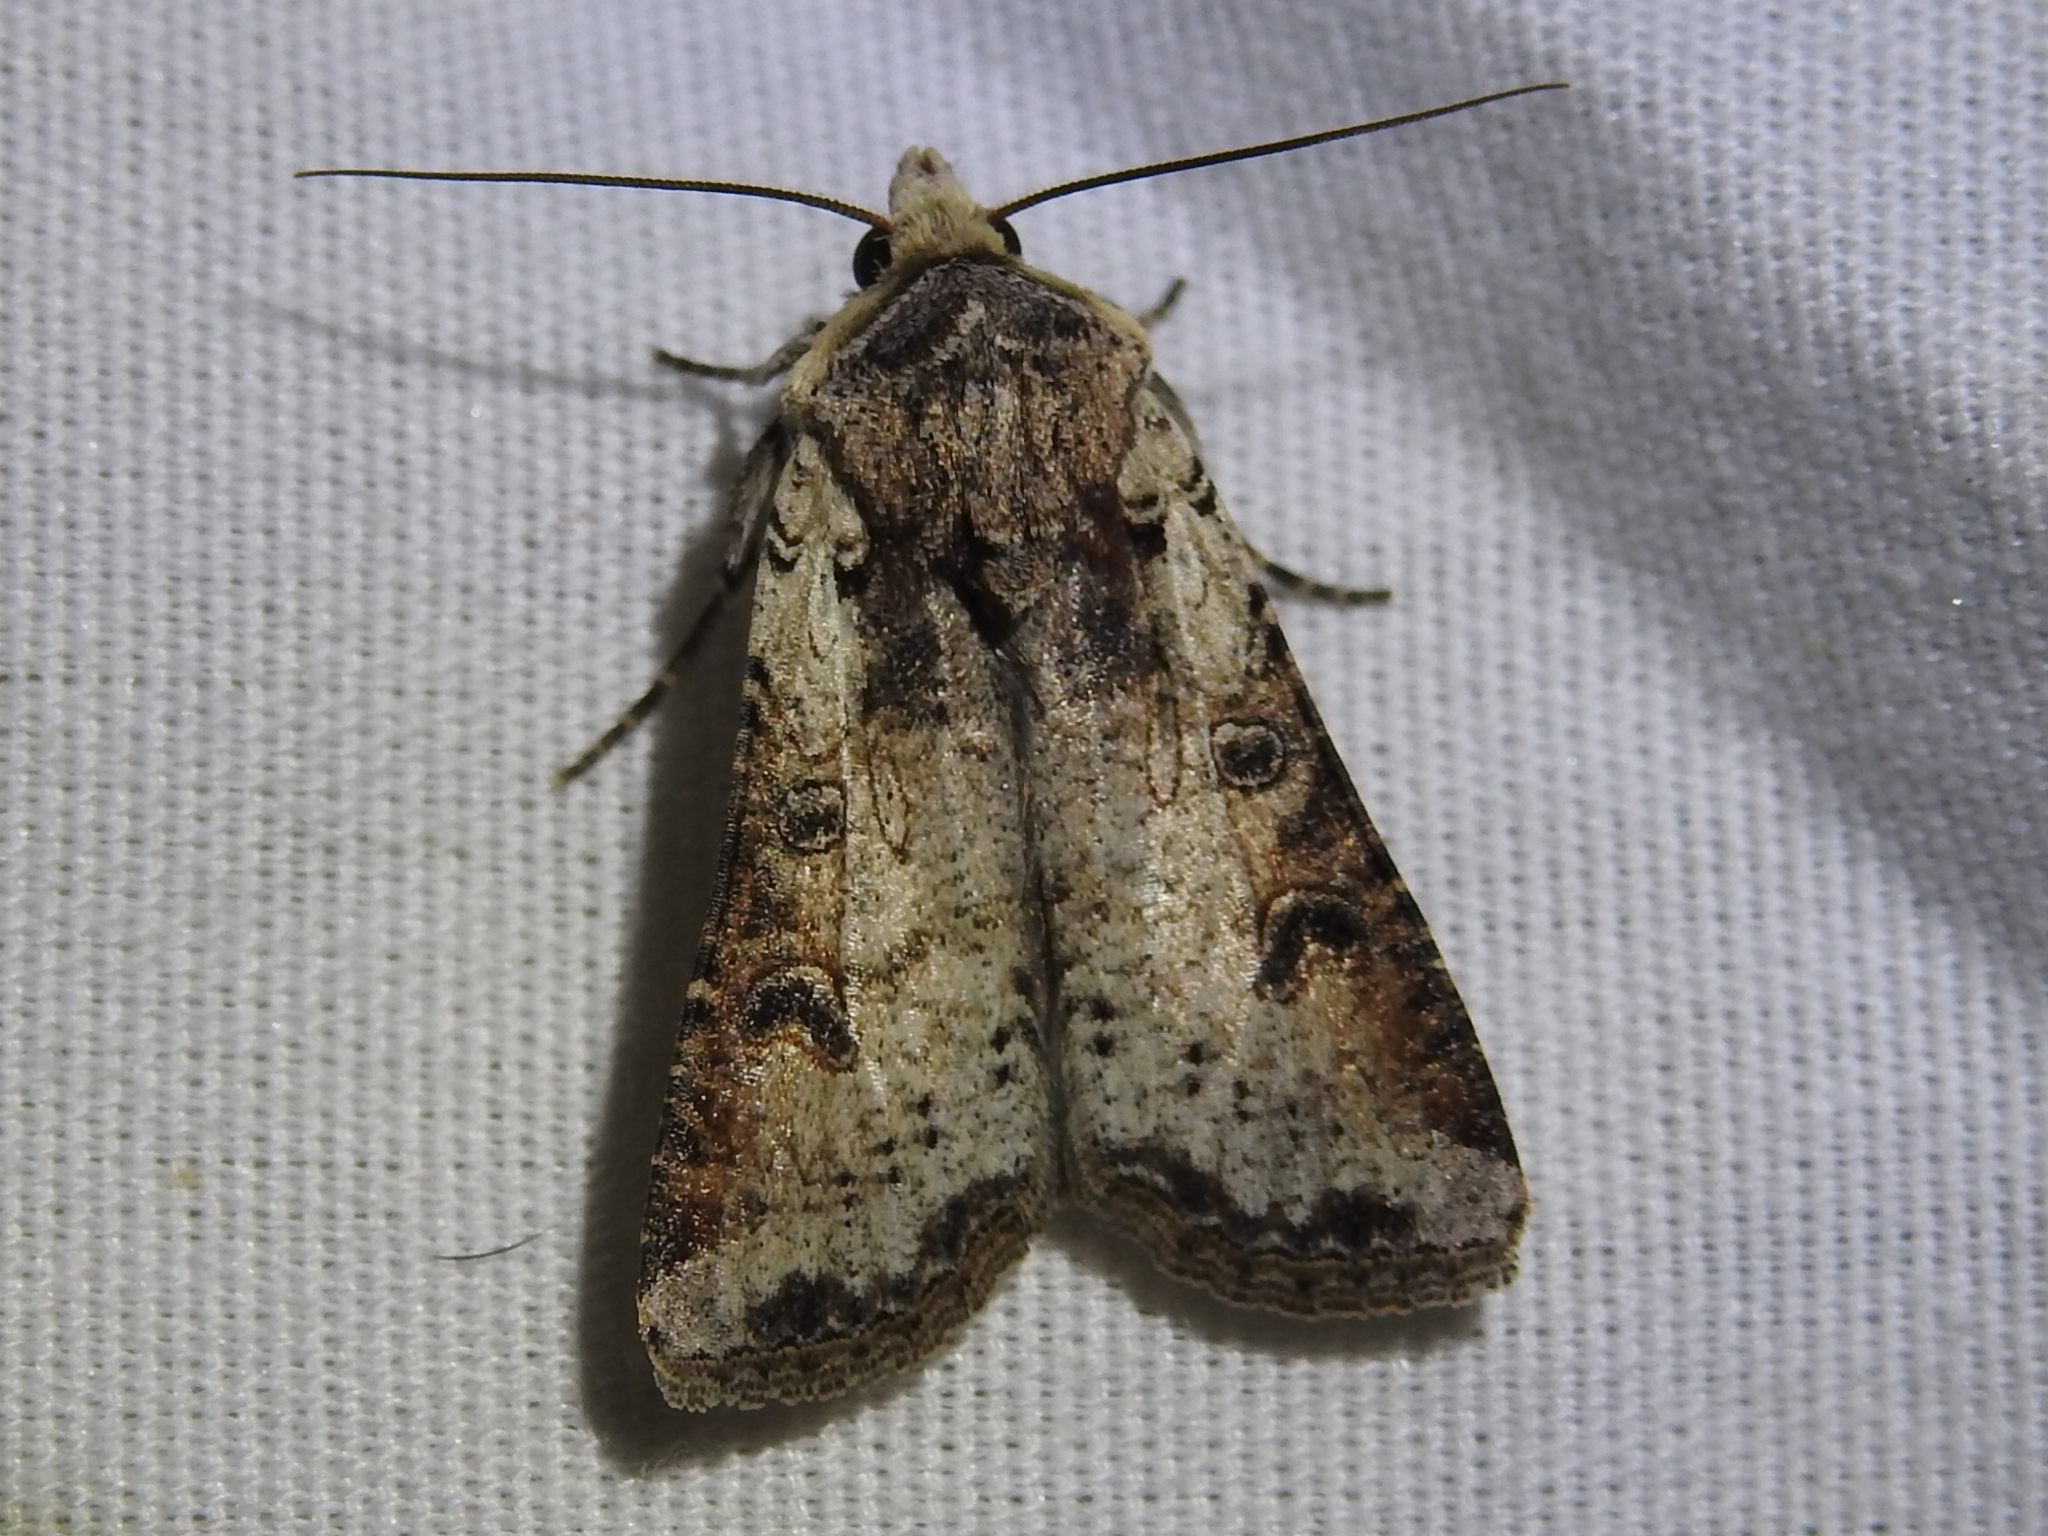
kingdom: Animalia
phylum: Arthropoda
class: Insecta
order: Lepidoptera
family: Noctuidae
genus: Hemieuxoa
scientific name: Hemieuxoa rudens
